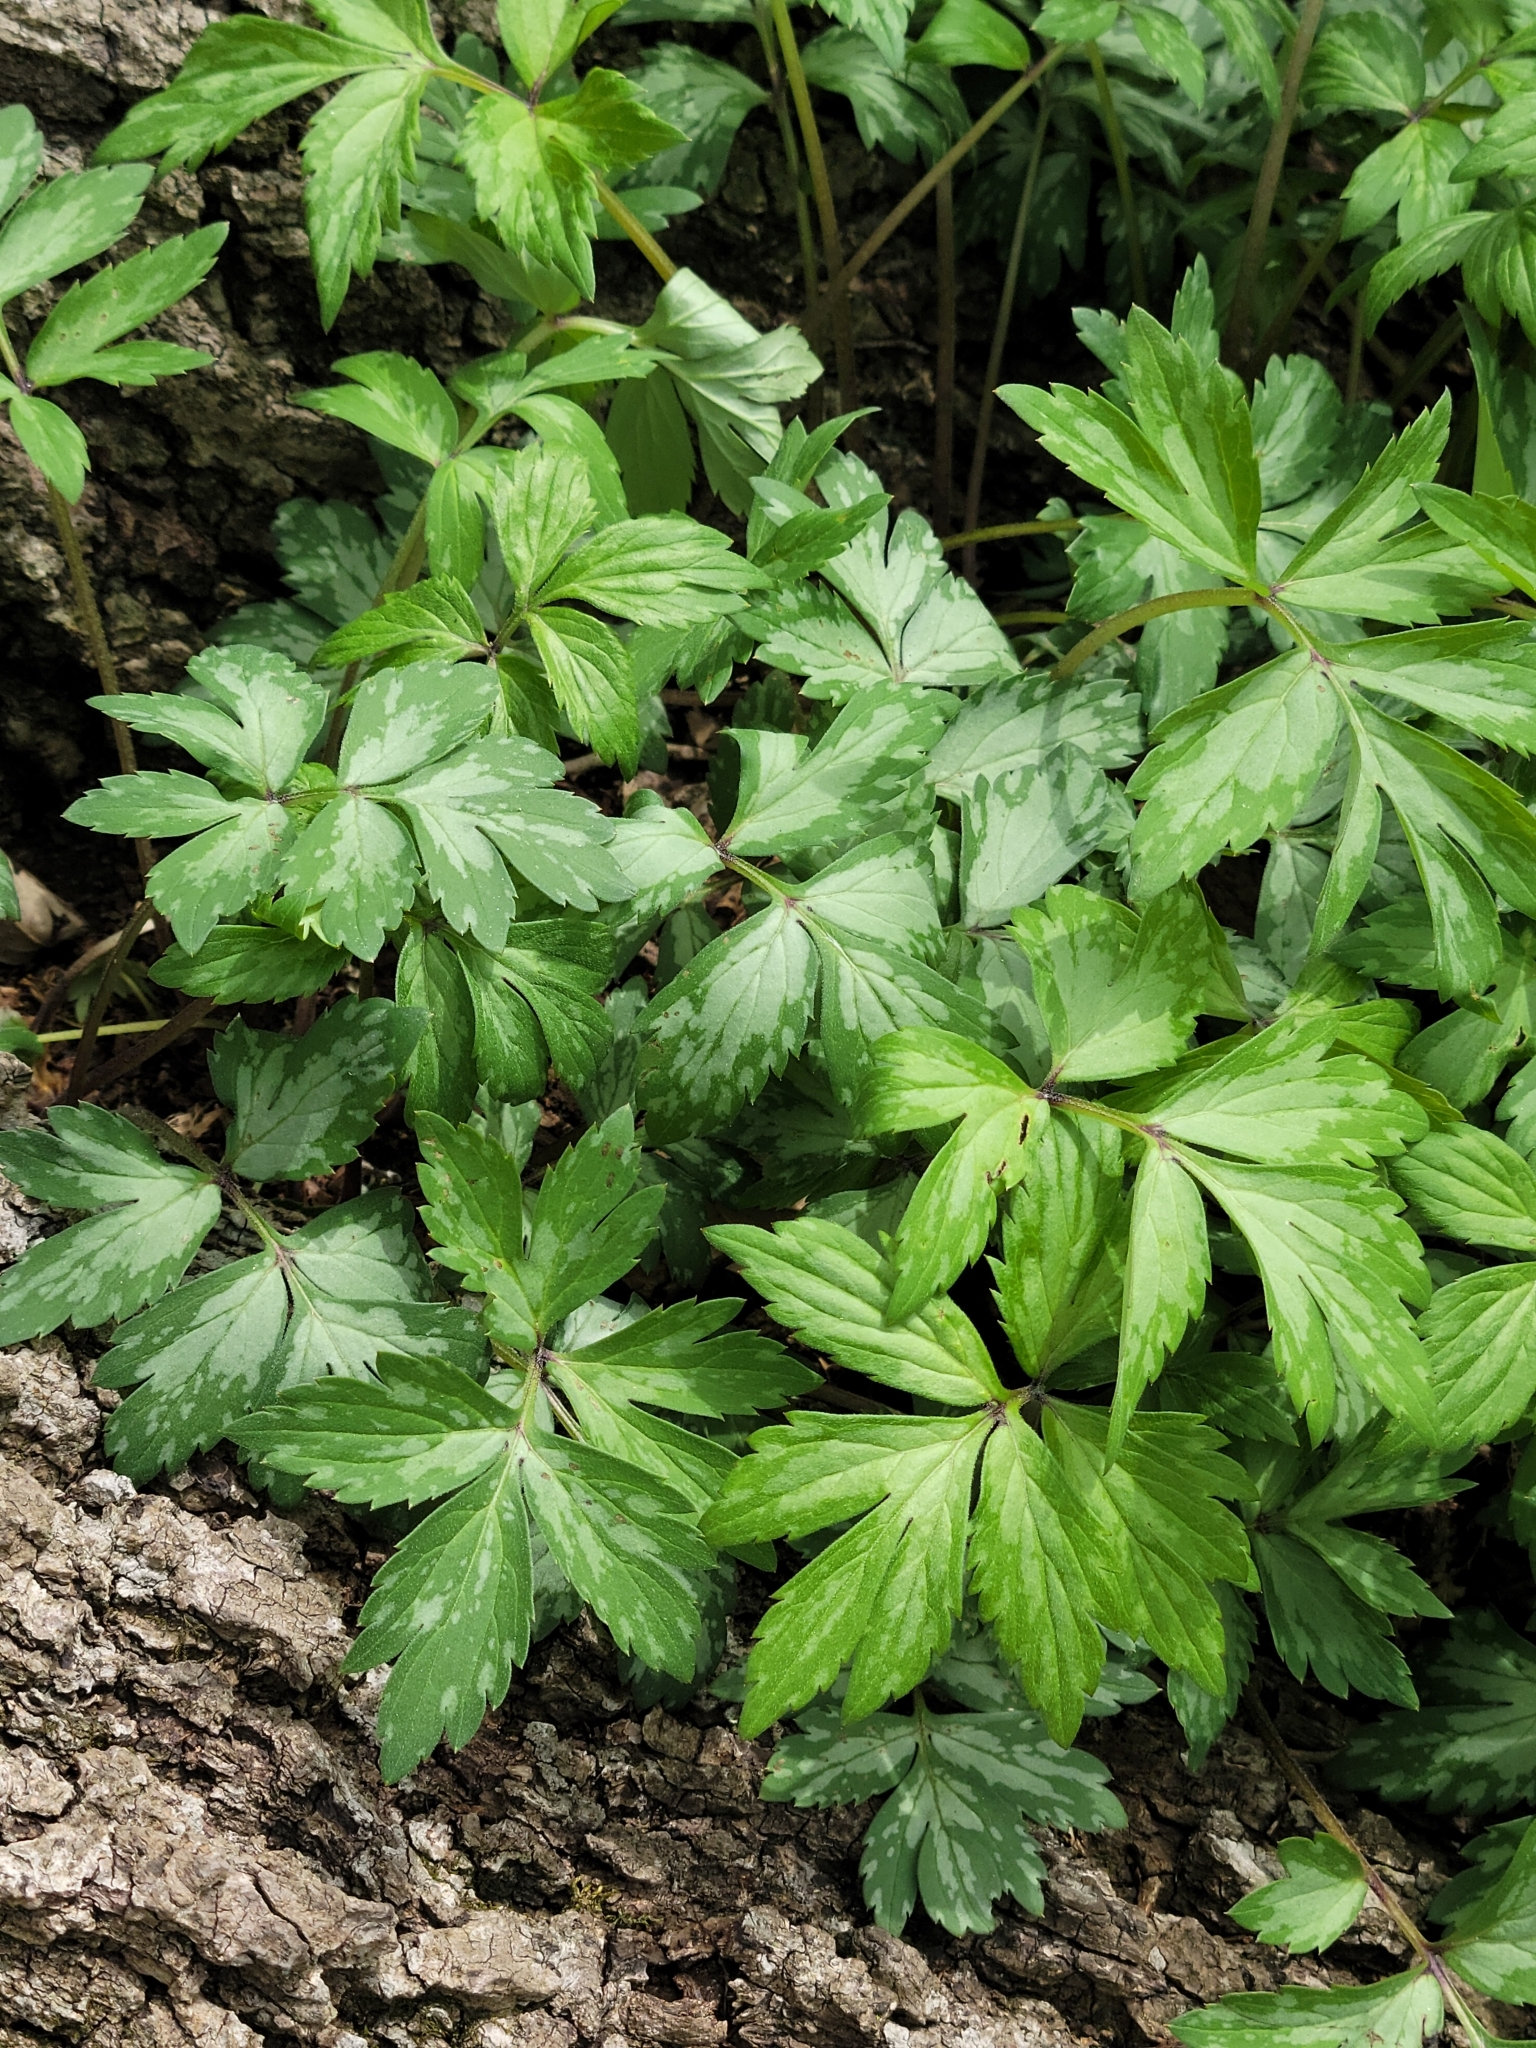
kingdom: Plantae
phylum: Tracheophyta
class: Magnoliopsida
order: Boraginales
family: Hydrophyllaceae
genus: Hydrophyllum
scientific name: Hydrophyllum virginianum
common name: Virginia waterleaf
